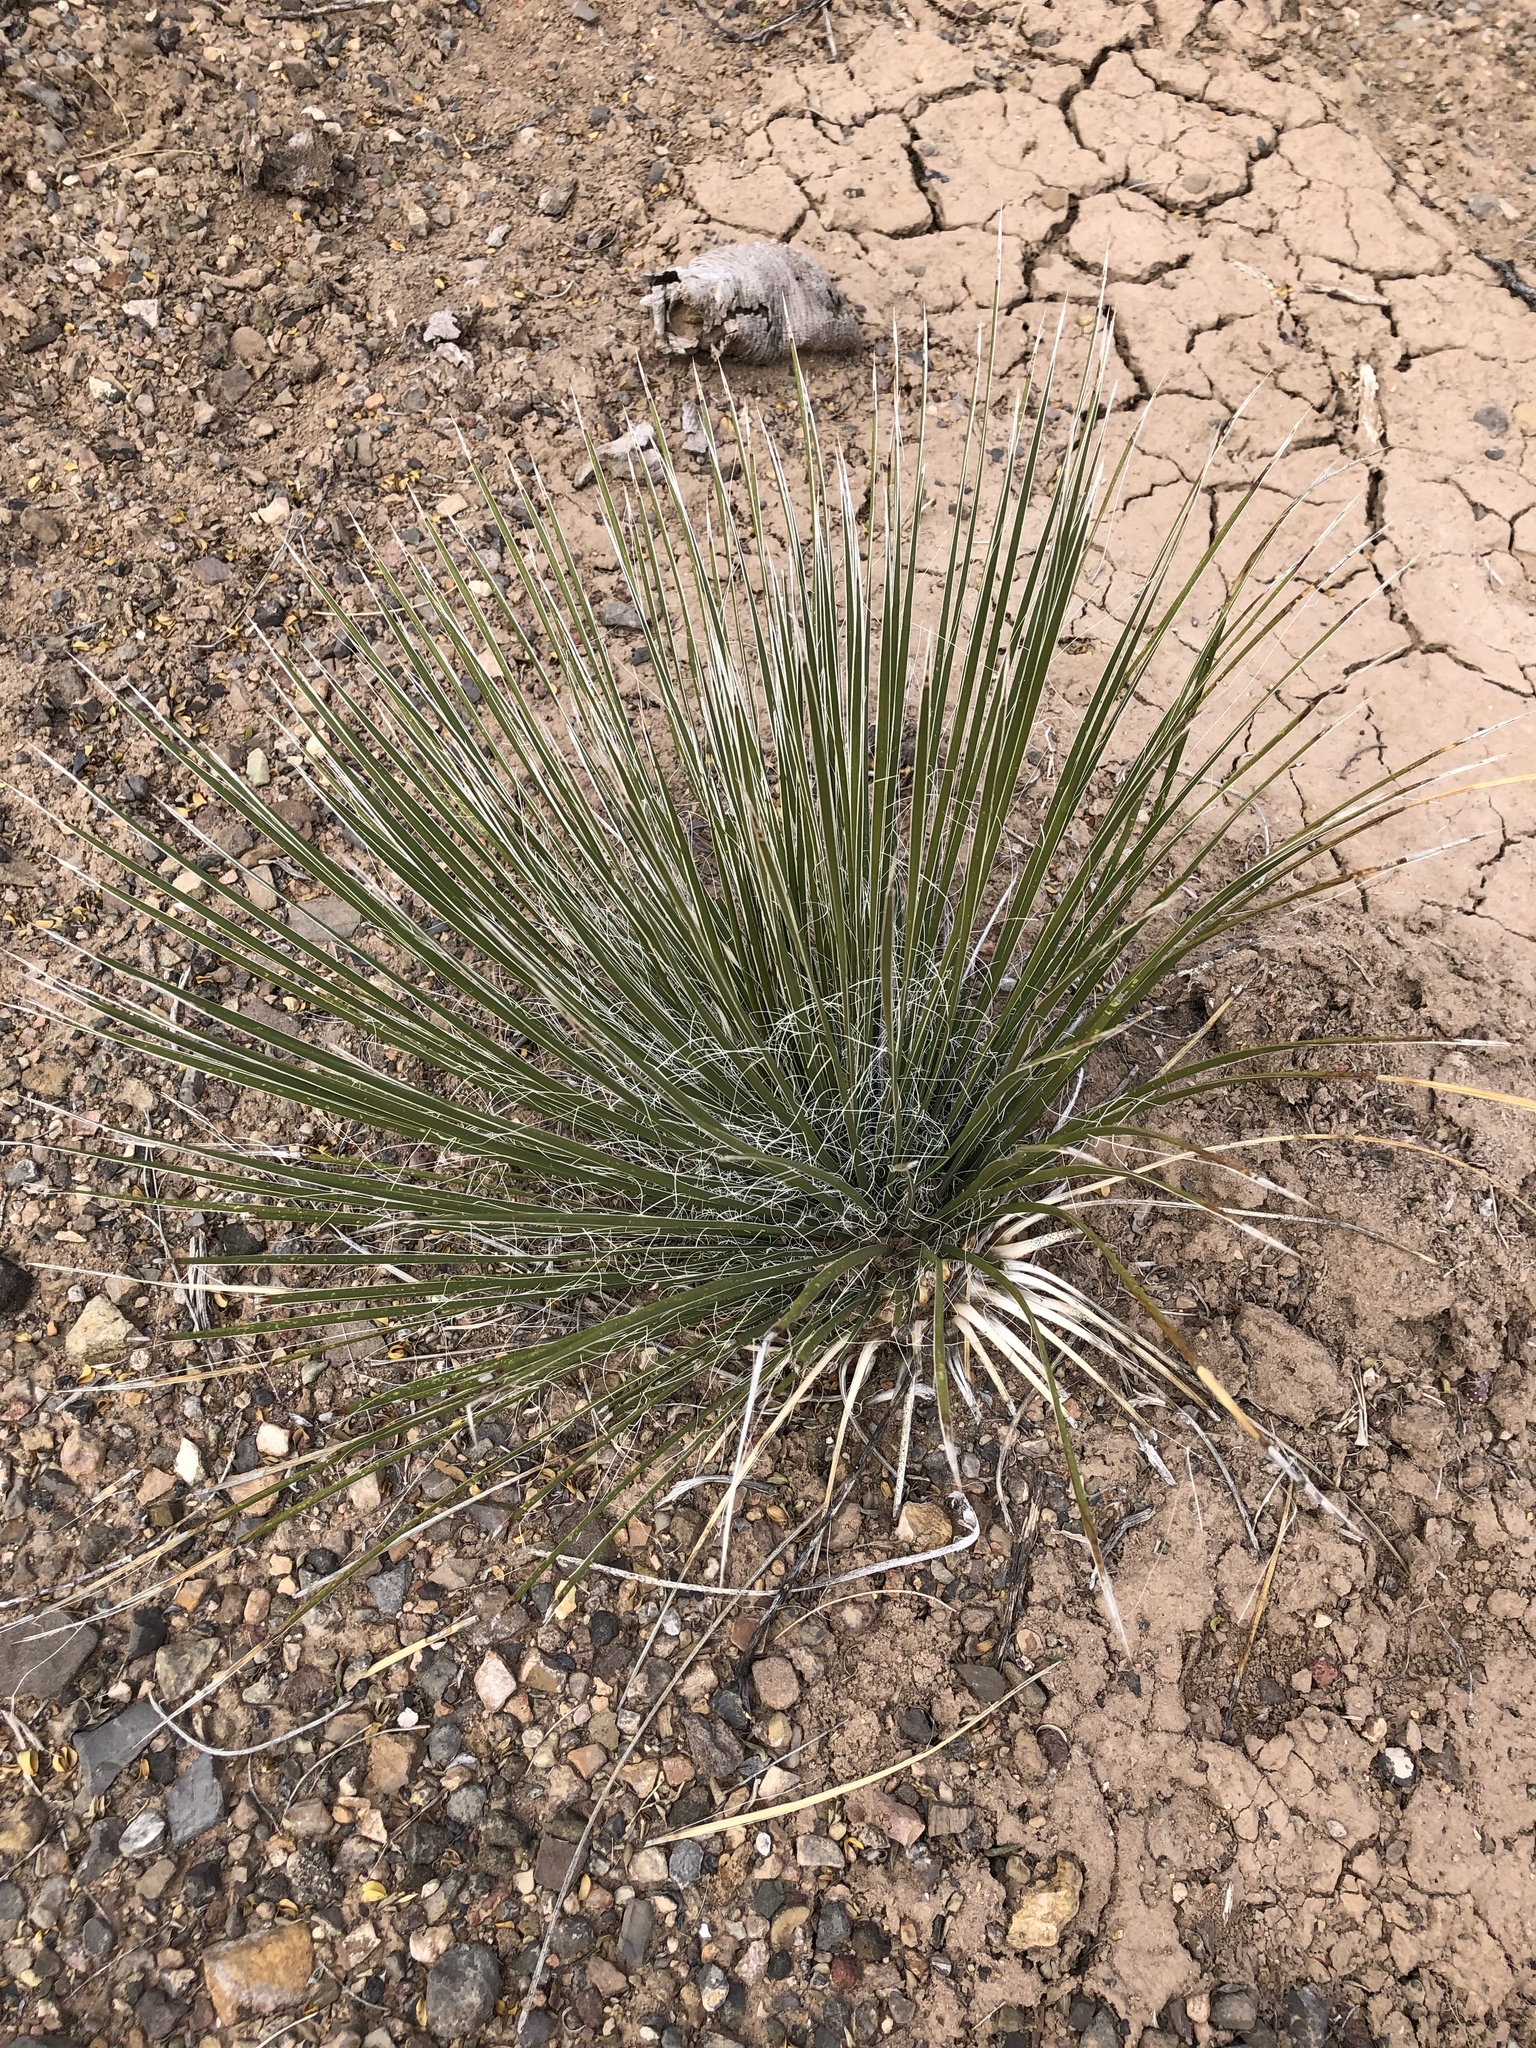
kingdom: Plantae
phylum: Tracheophyta
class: Liliopsida
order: Asparagales
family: Asparagaceae
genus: Yucca
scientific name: Yucca elata
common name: Palmella
